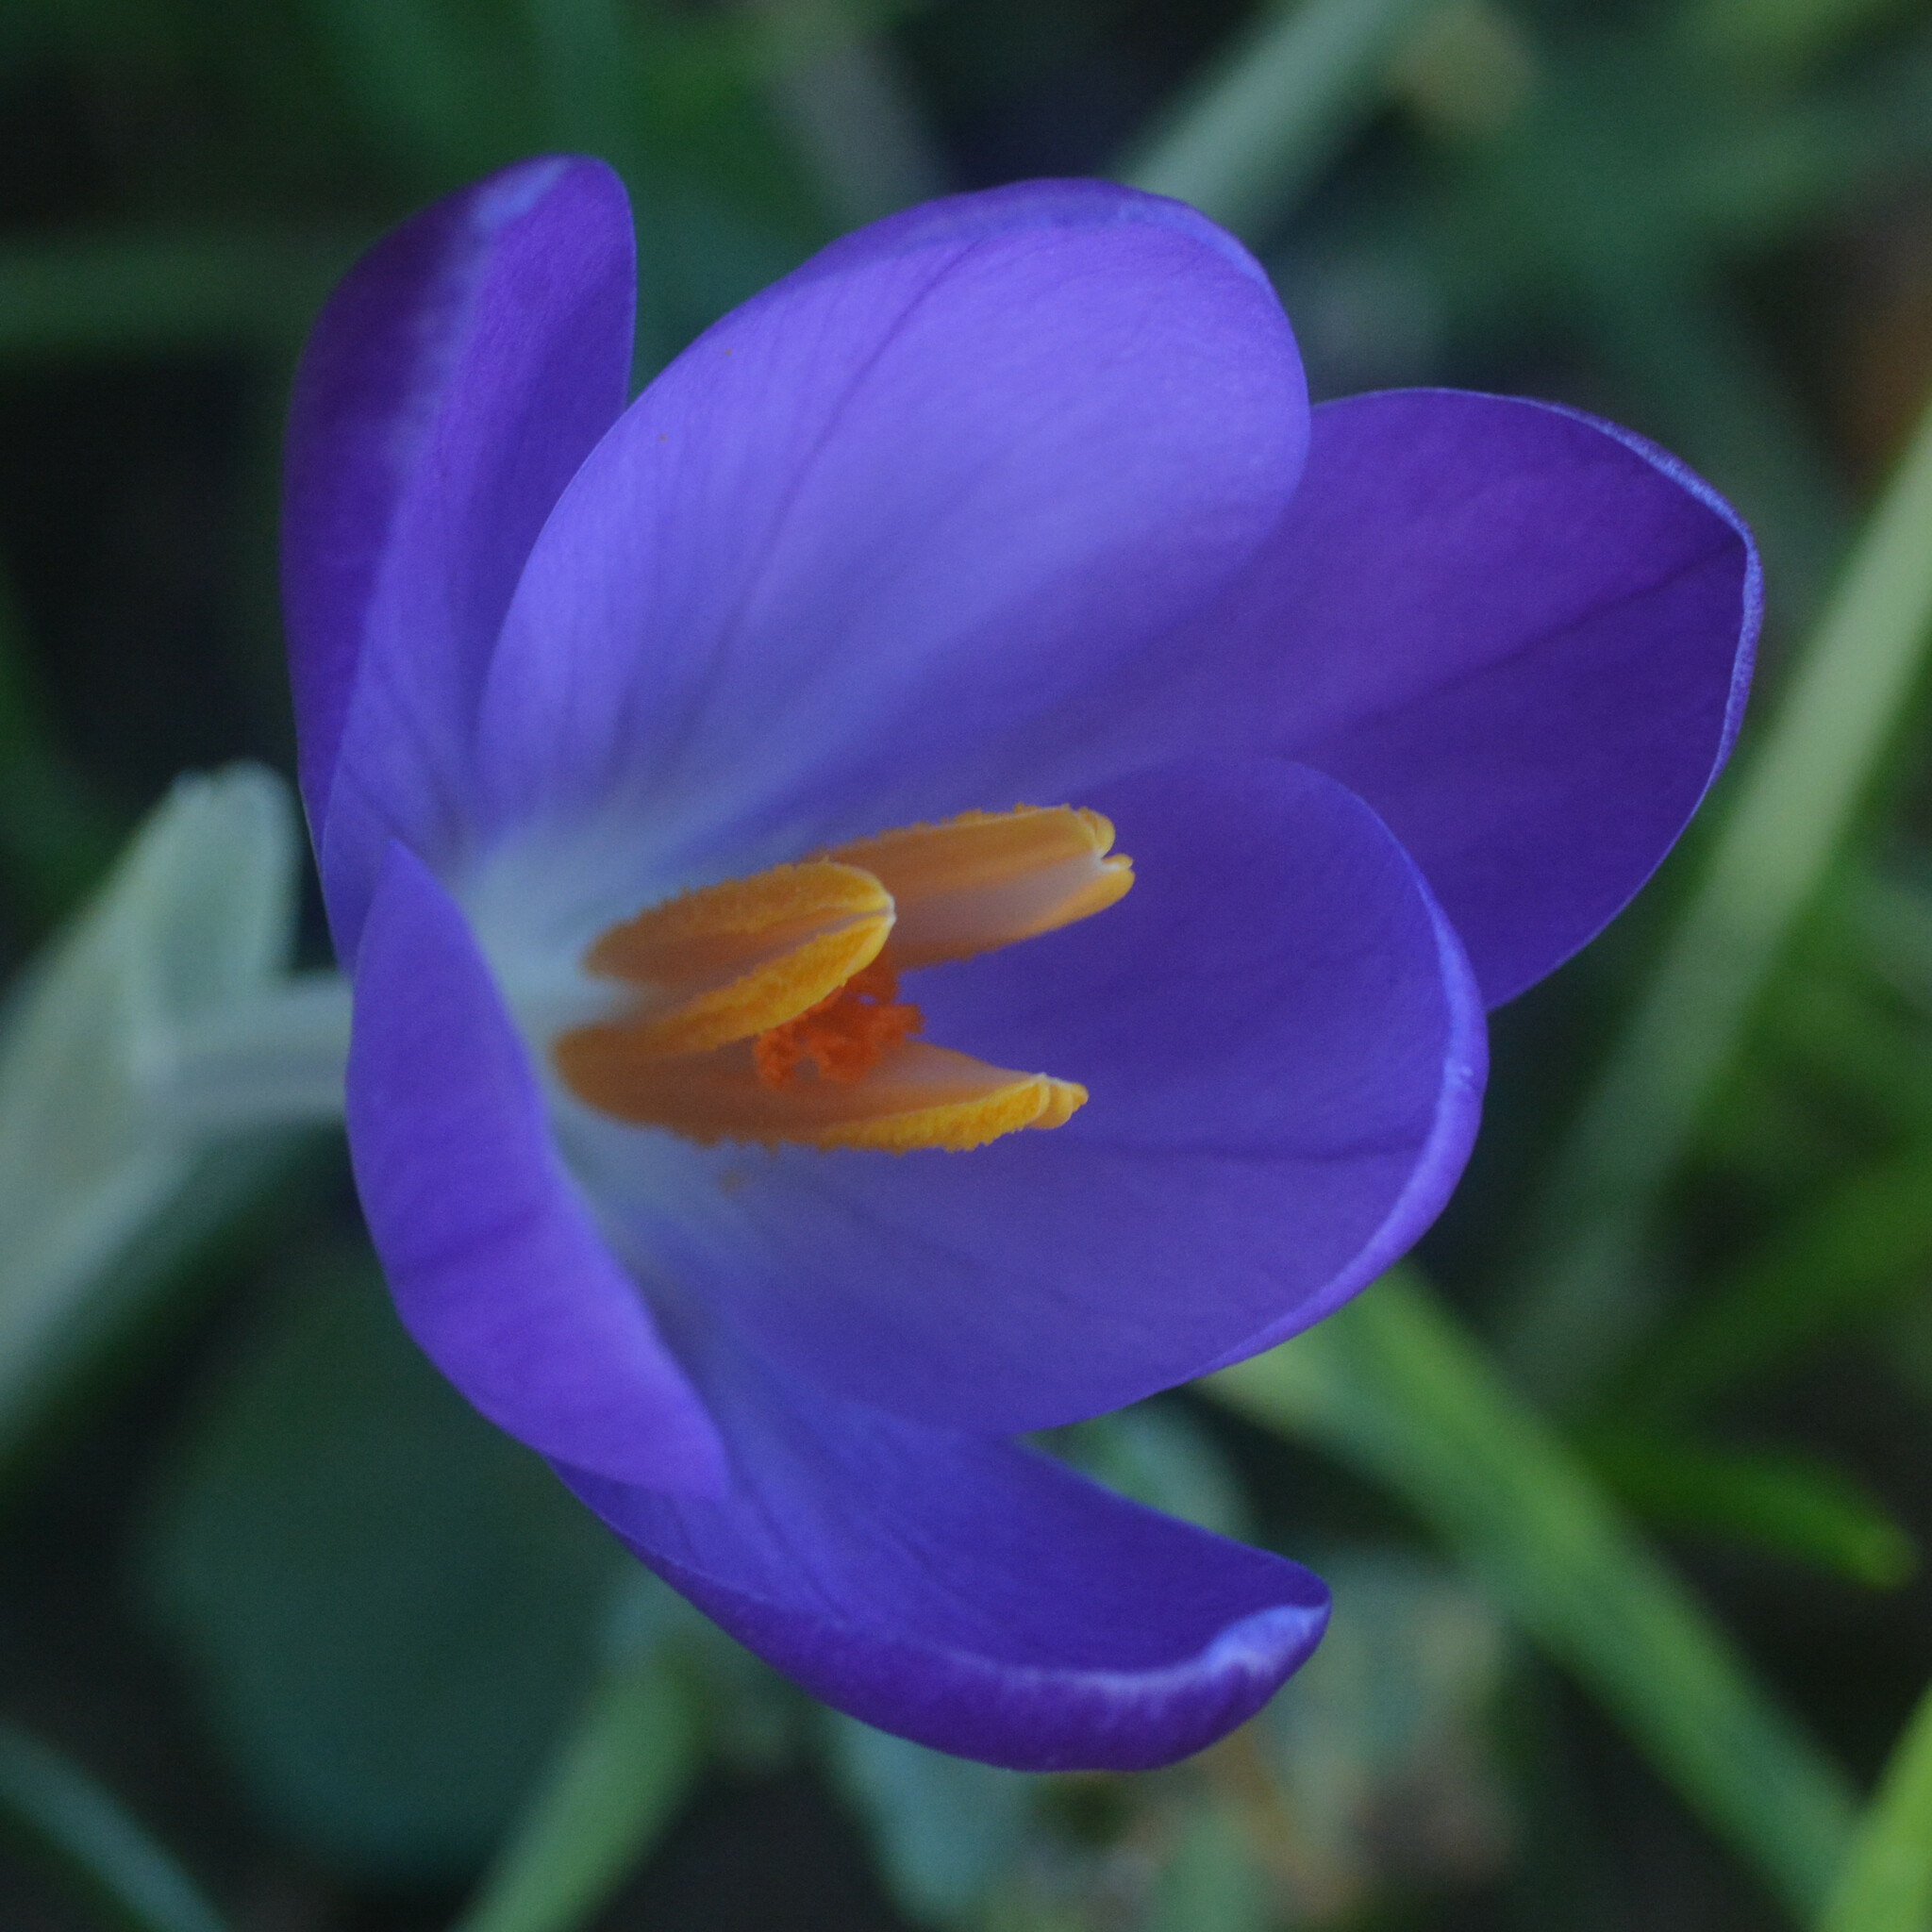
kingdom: Plantae
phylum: Tracheophyta
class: Liliopsida
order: Asparagales
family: Iridaceae
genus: Crocus
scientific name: Crocus tommasinianus
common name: Early crocus
